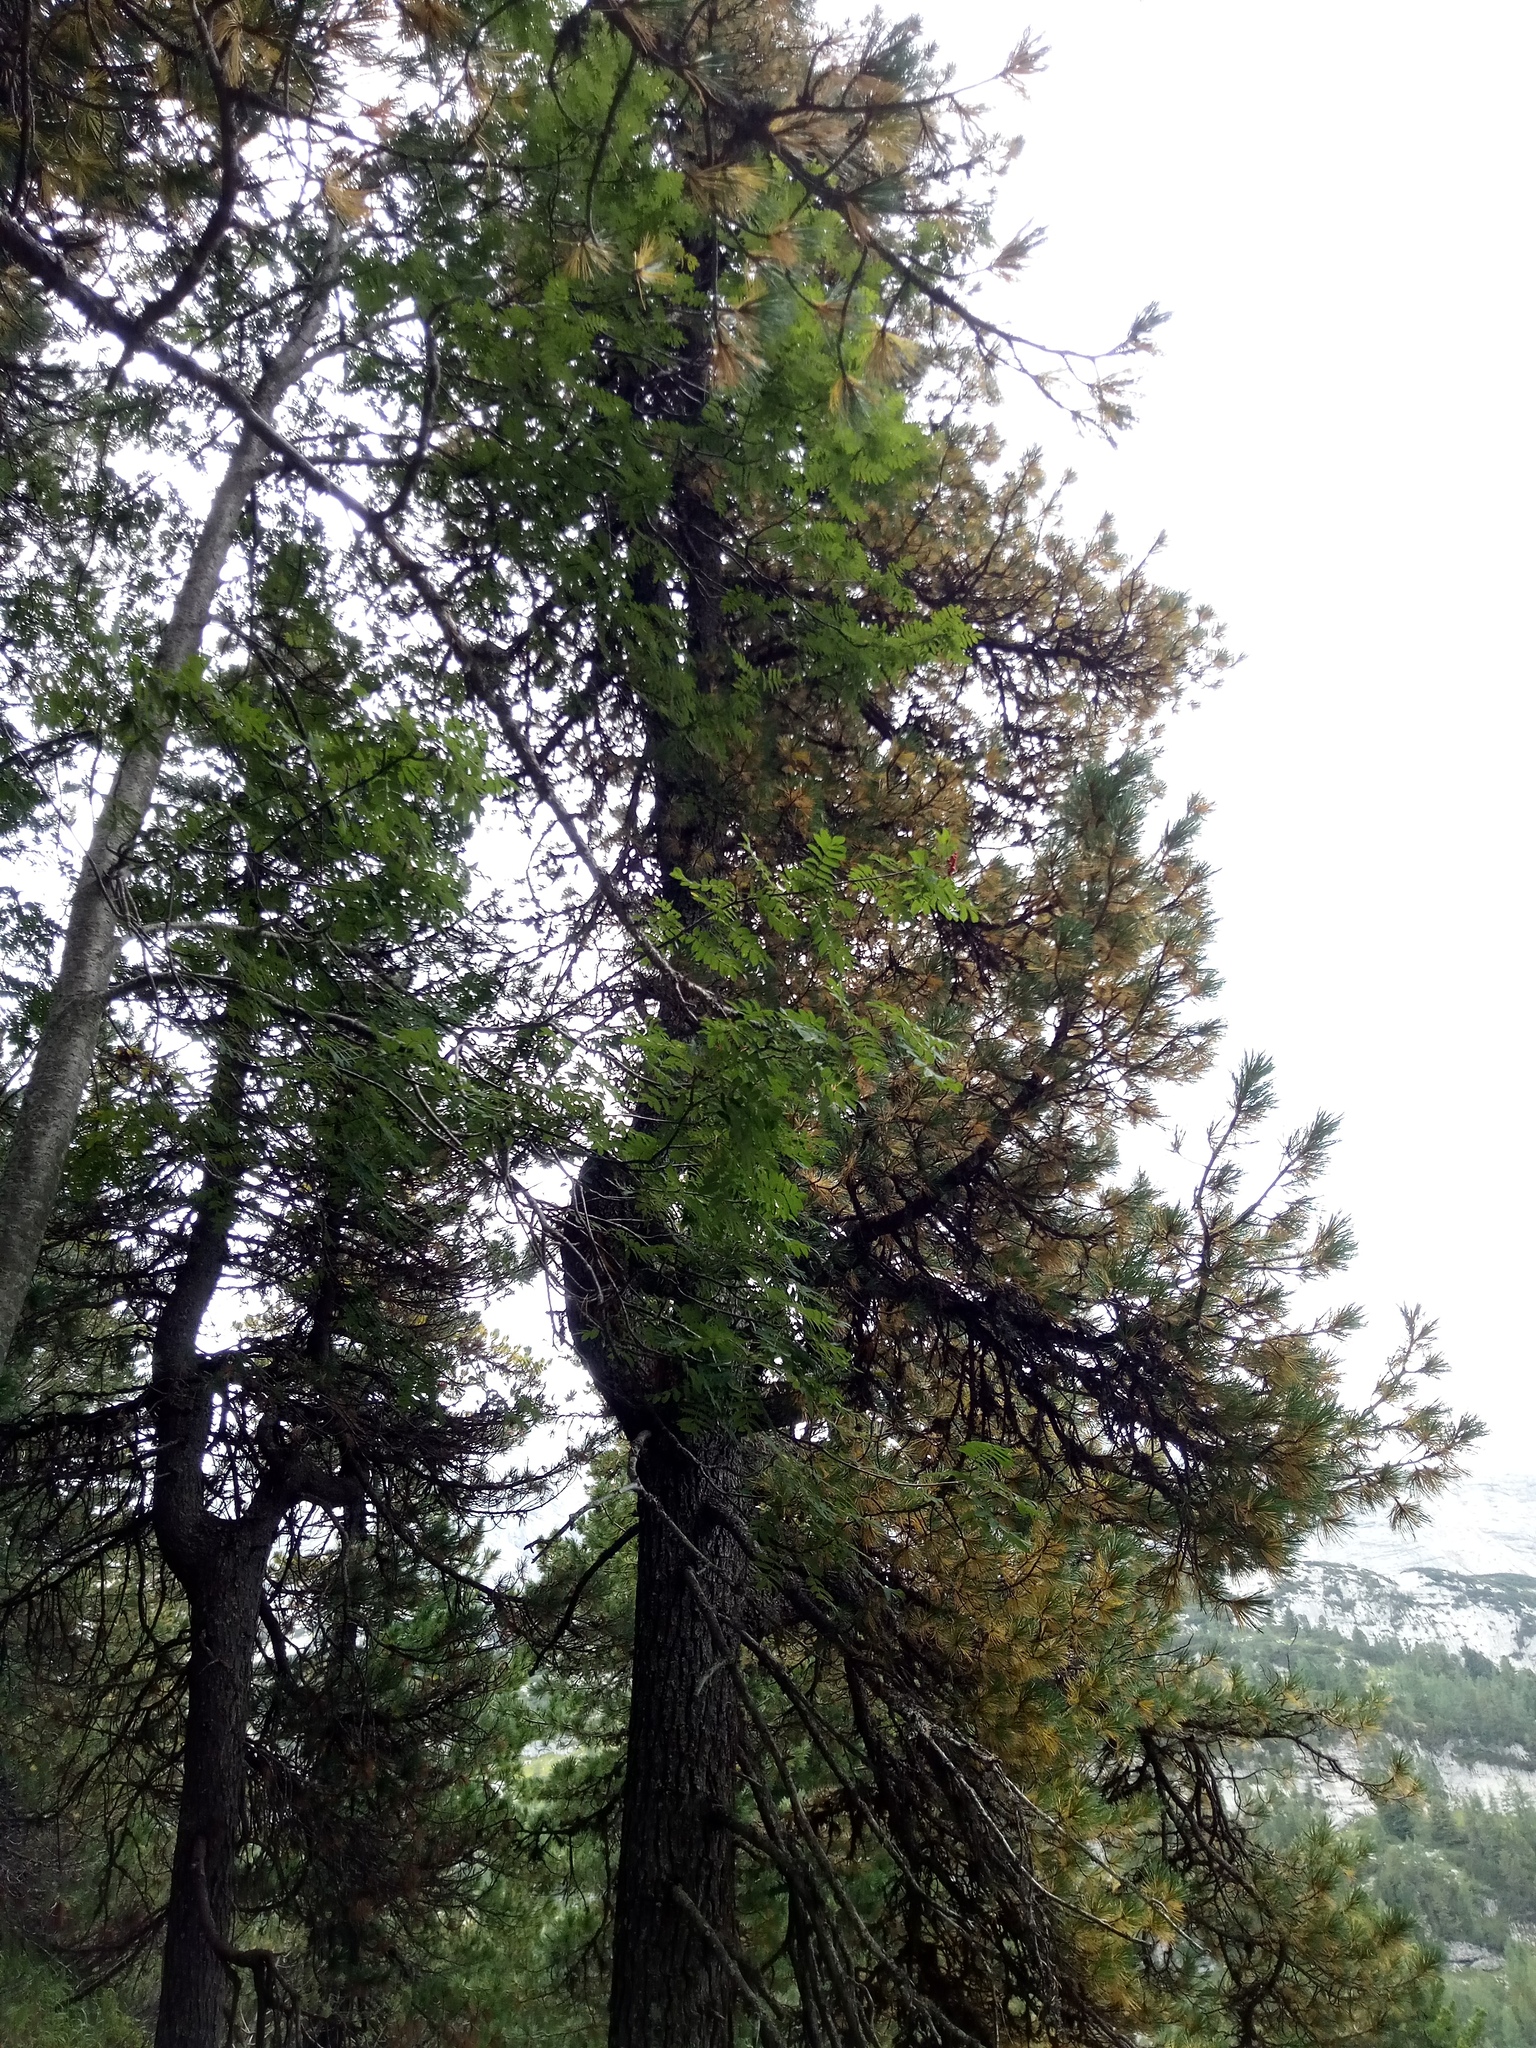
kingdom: Plantae
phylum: Tracheophyta
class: Magnoliopsida
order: Rosales
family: Rosaceae
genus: Sorbus
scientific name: Sorbus aucuparia
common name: Rowan
